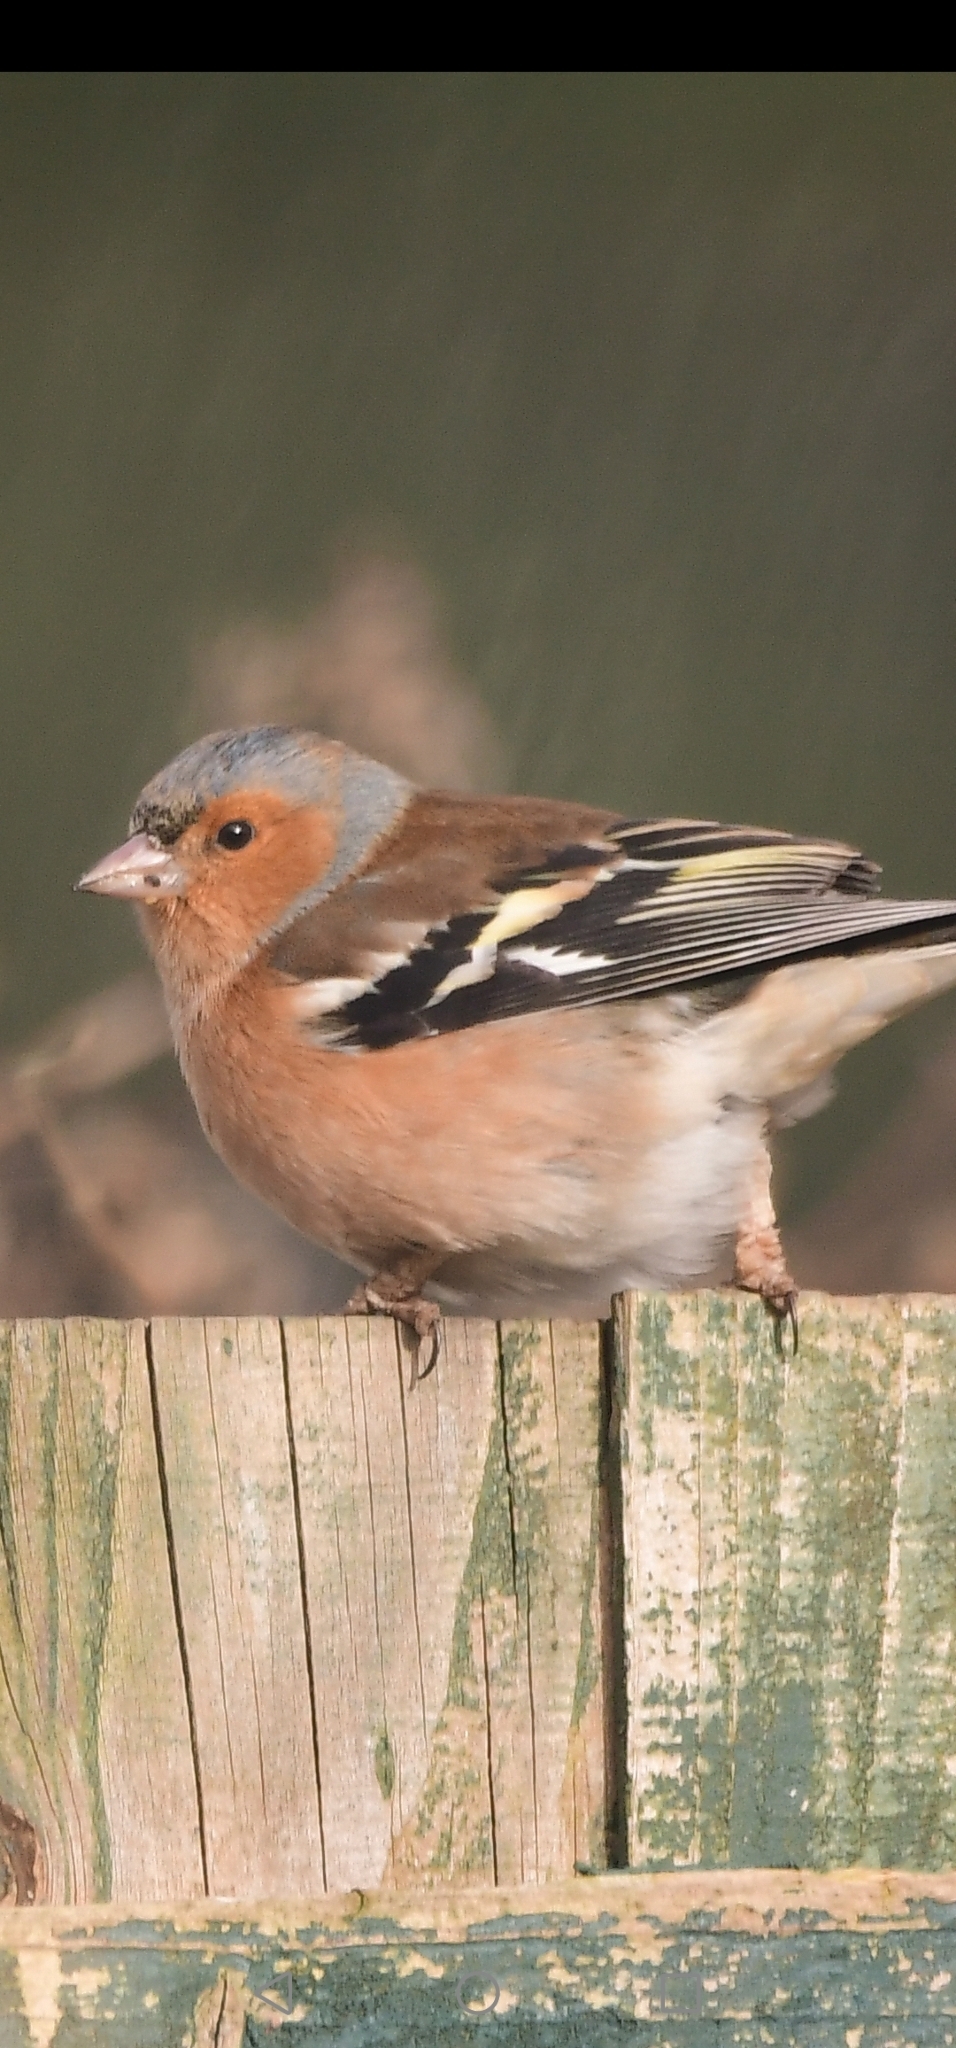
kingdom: Animalia
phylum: Chordata
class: Aves
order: Passeriformes
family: Fringillidae
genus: Fringilla
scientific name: Fringilla coelebs
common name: Common chaffinch
